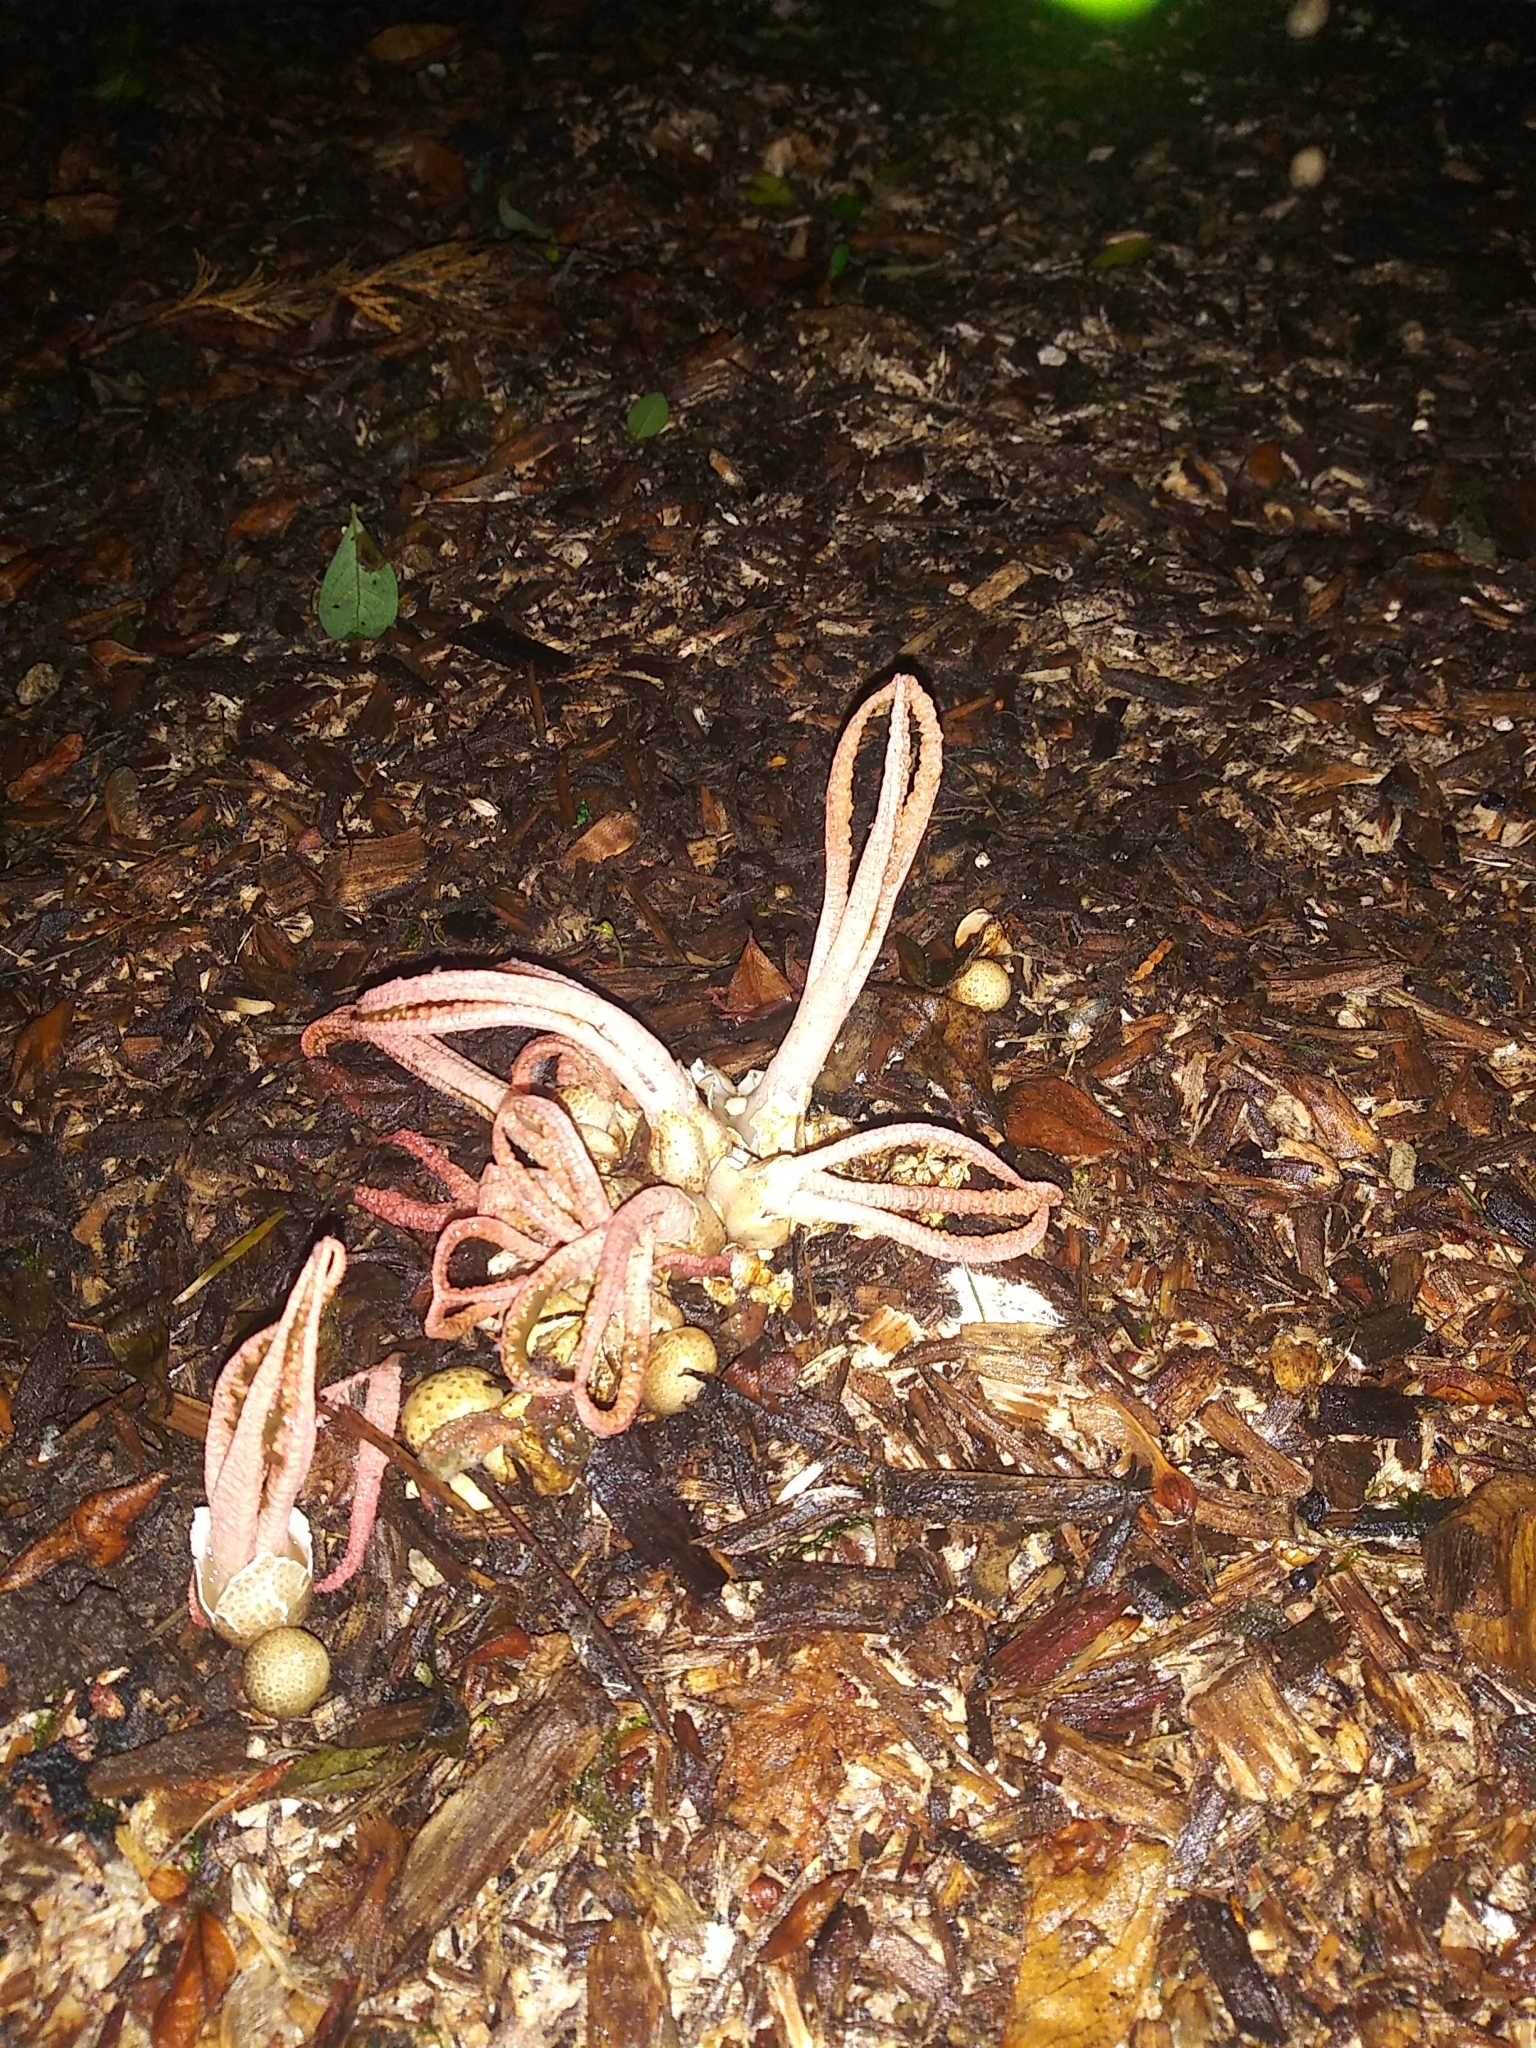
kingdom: Fungi
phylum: Basidiomycota
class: Agaricomycetes
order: Phallales
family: Phallaceae
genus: Pseudocolus
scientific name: Pseudocolus fusiformis
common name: Stinky squid
